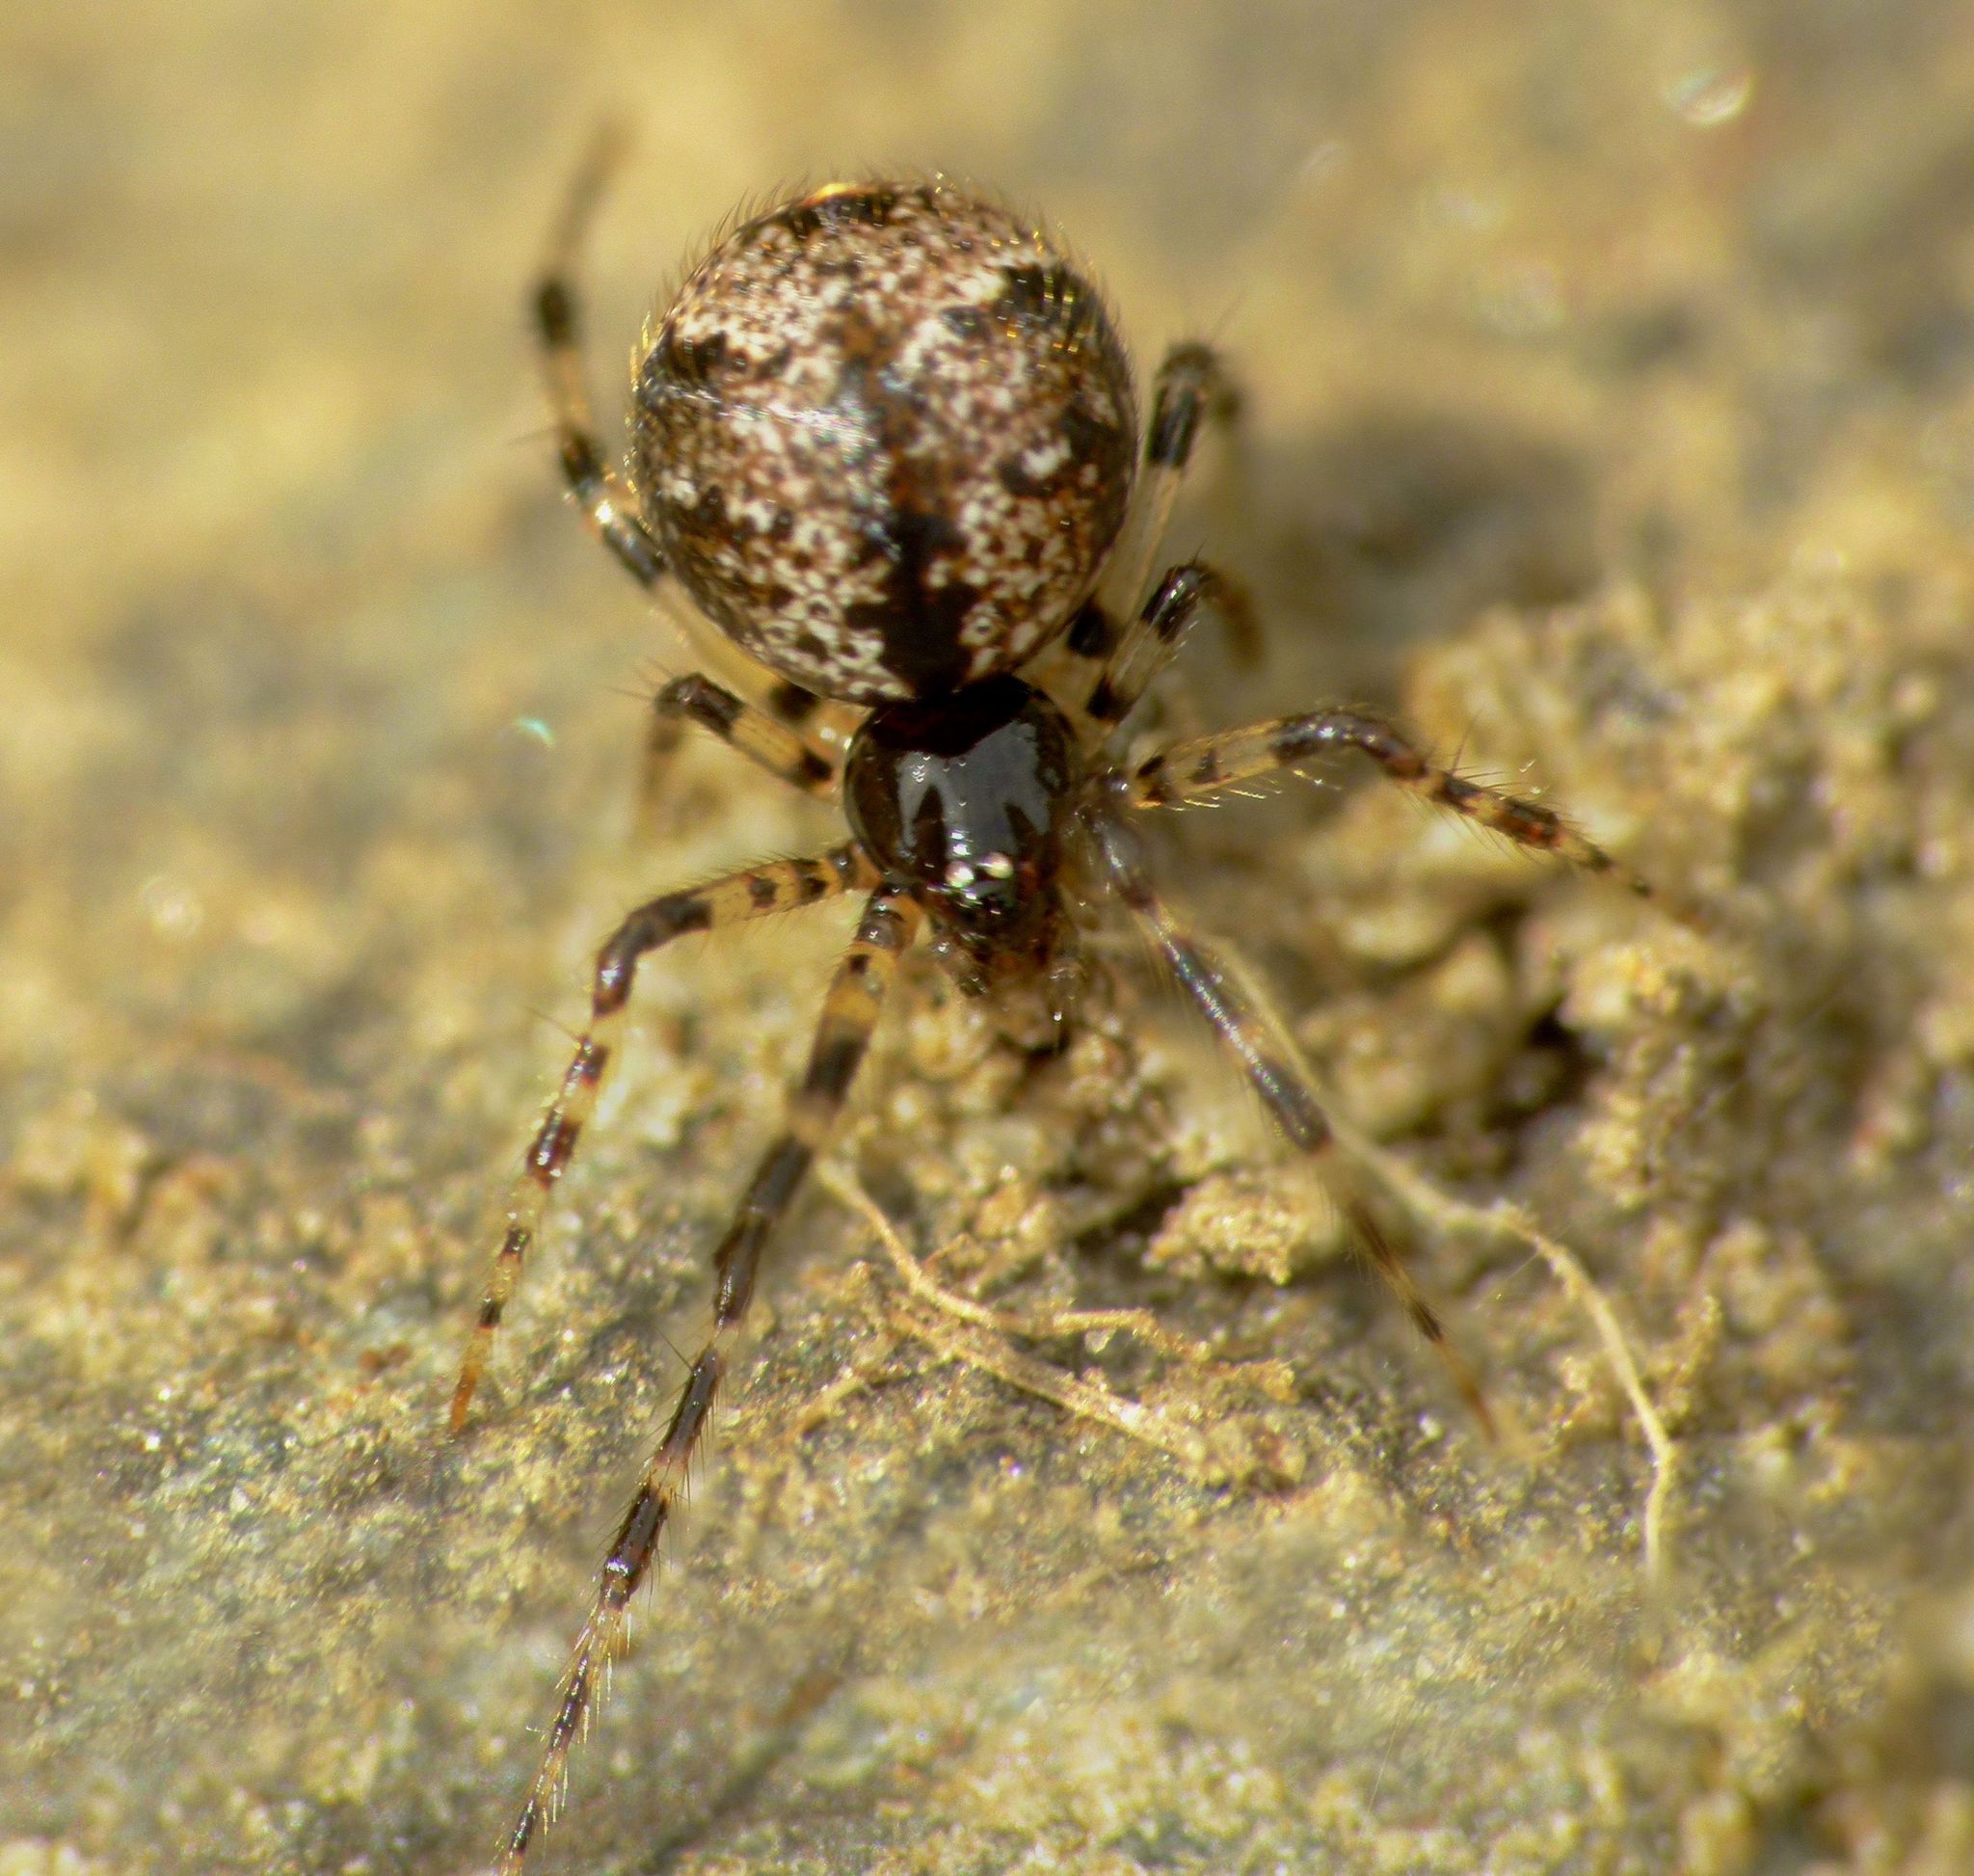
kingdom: Animalia
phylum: Arthropoda
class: Arachnida
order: Araneae
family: Theridiidae
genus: Cryptachaea
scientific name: Cryptachaea blattea
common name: Theridiid spider
